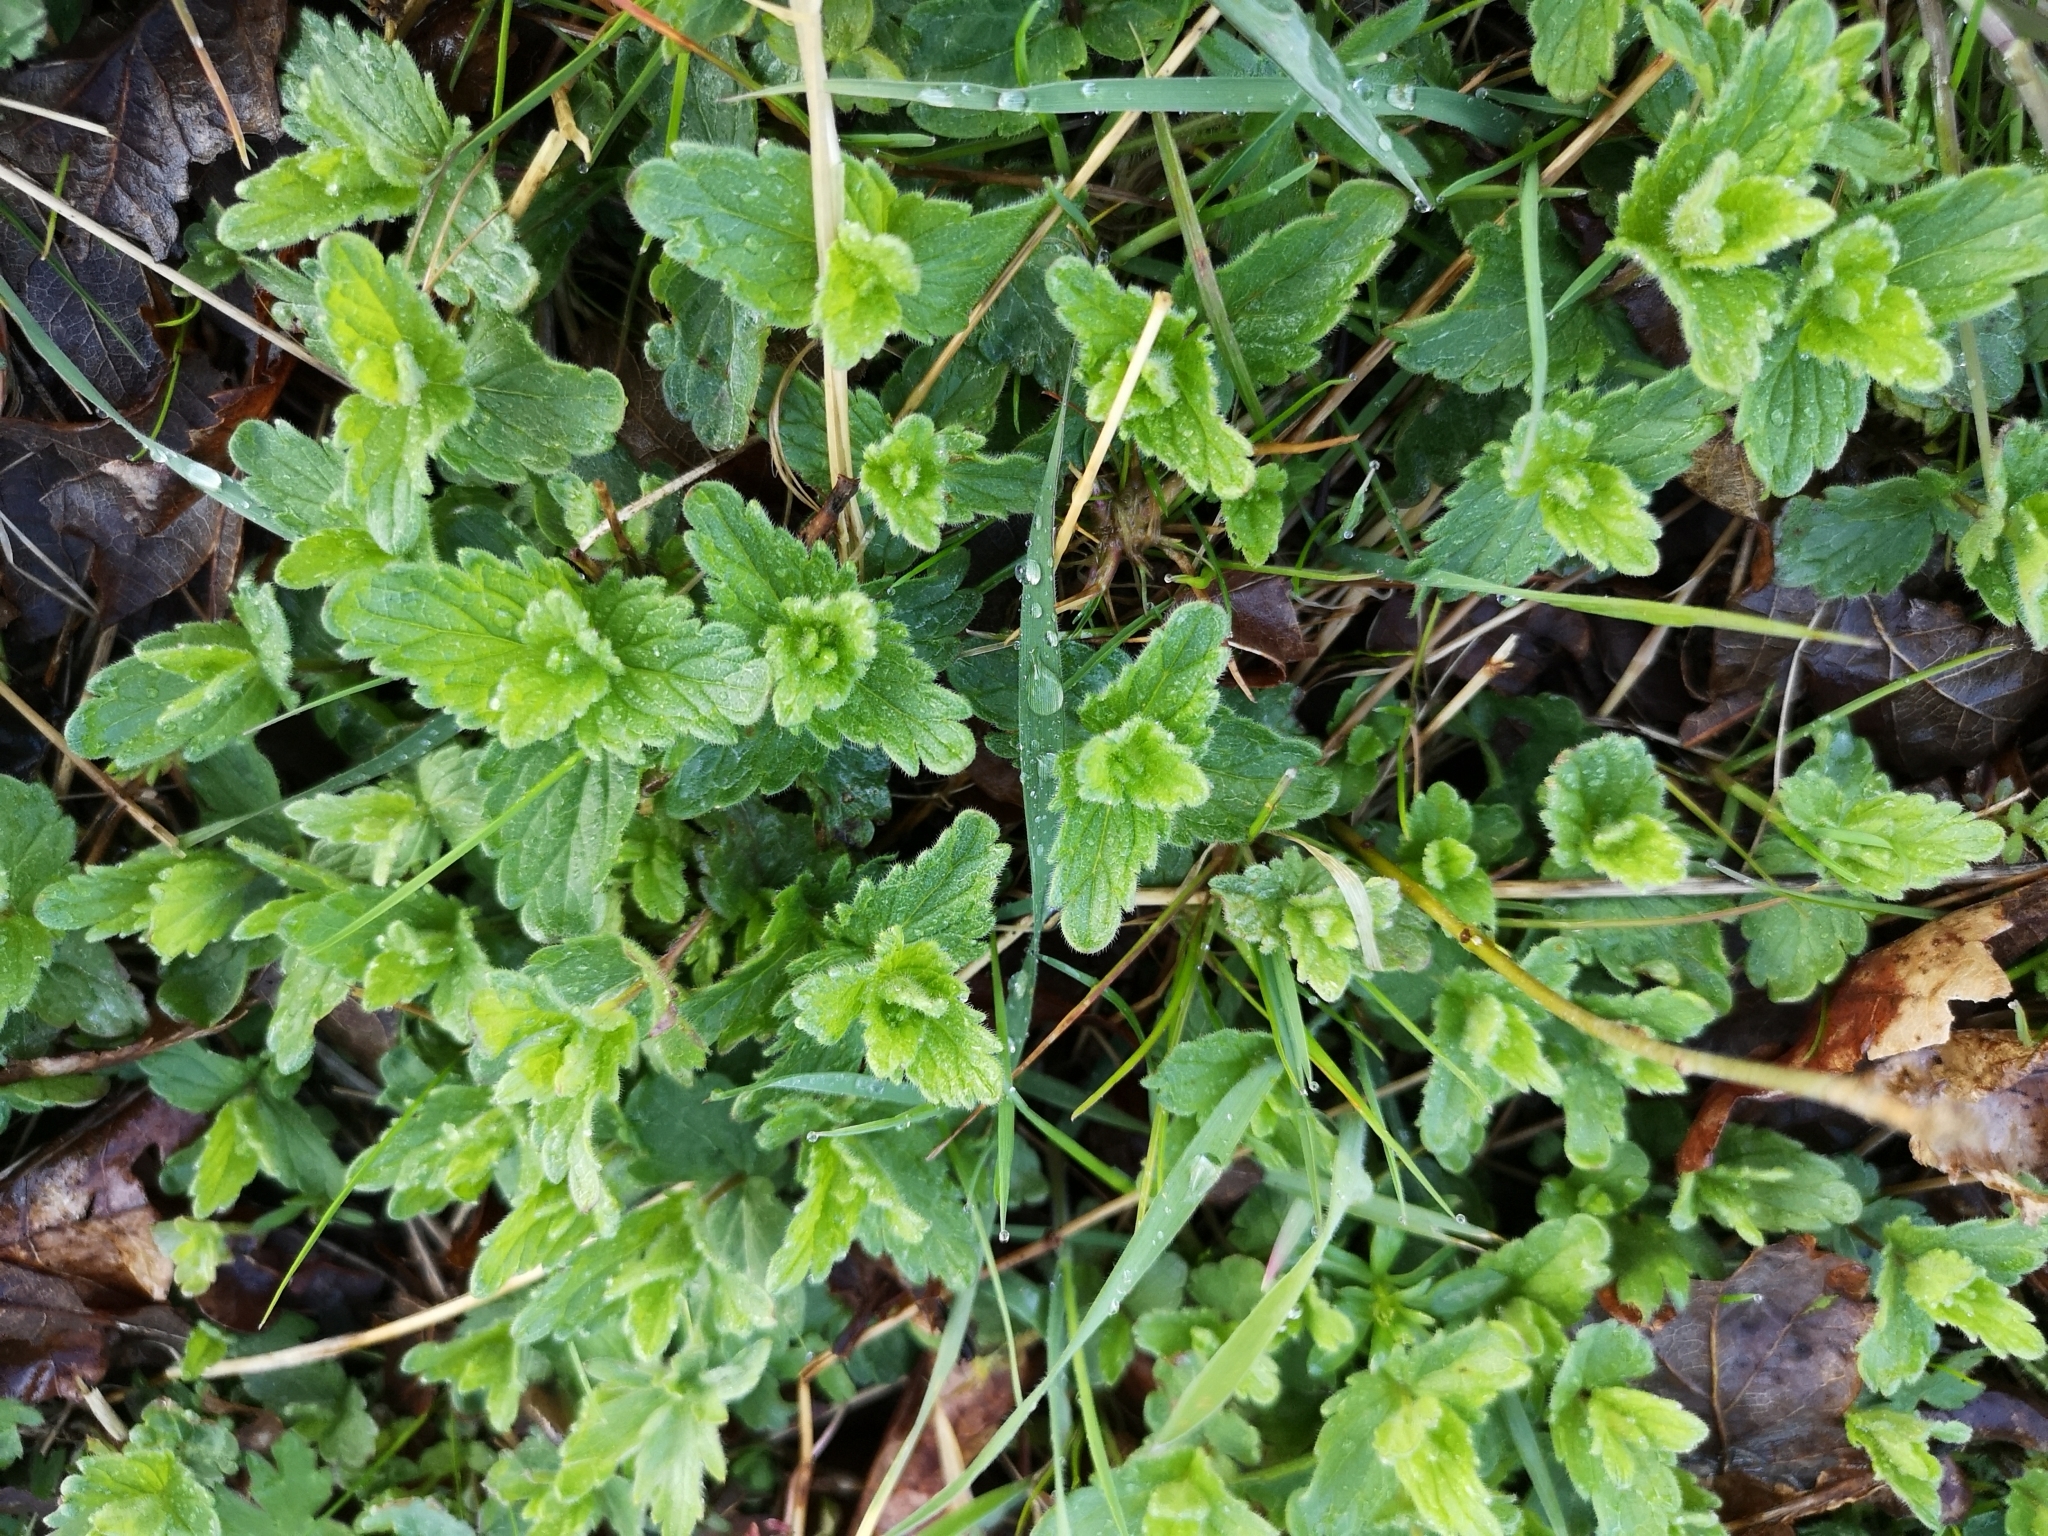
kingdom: Plantae
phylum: Tracheophyta
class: Magnoliopsida
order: Lamiales
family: Plantaginaceae
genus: Veronica
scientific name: Veronica chamaedrys
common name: Germander speedwell
